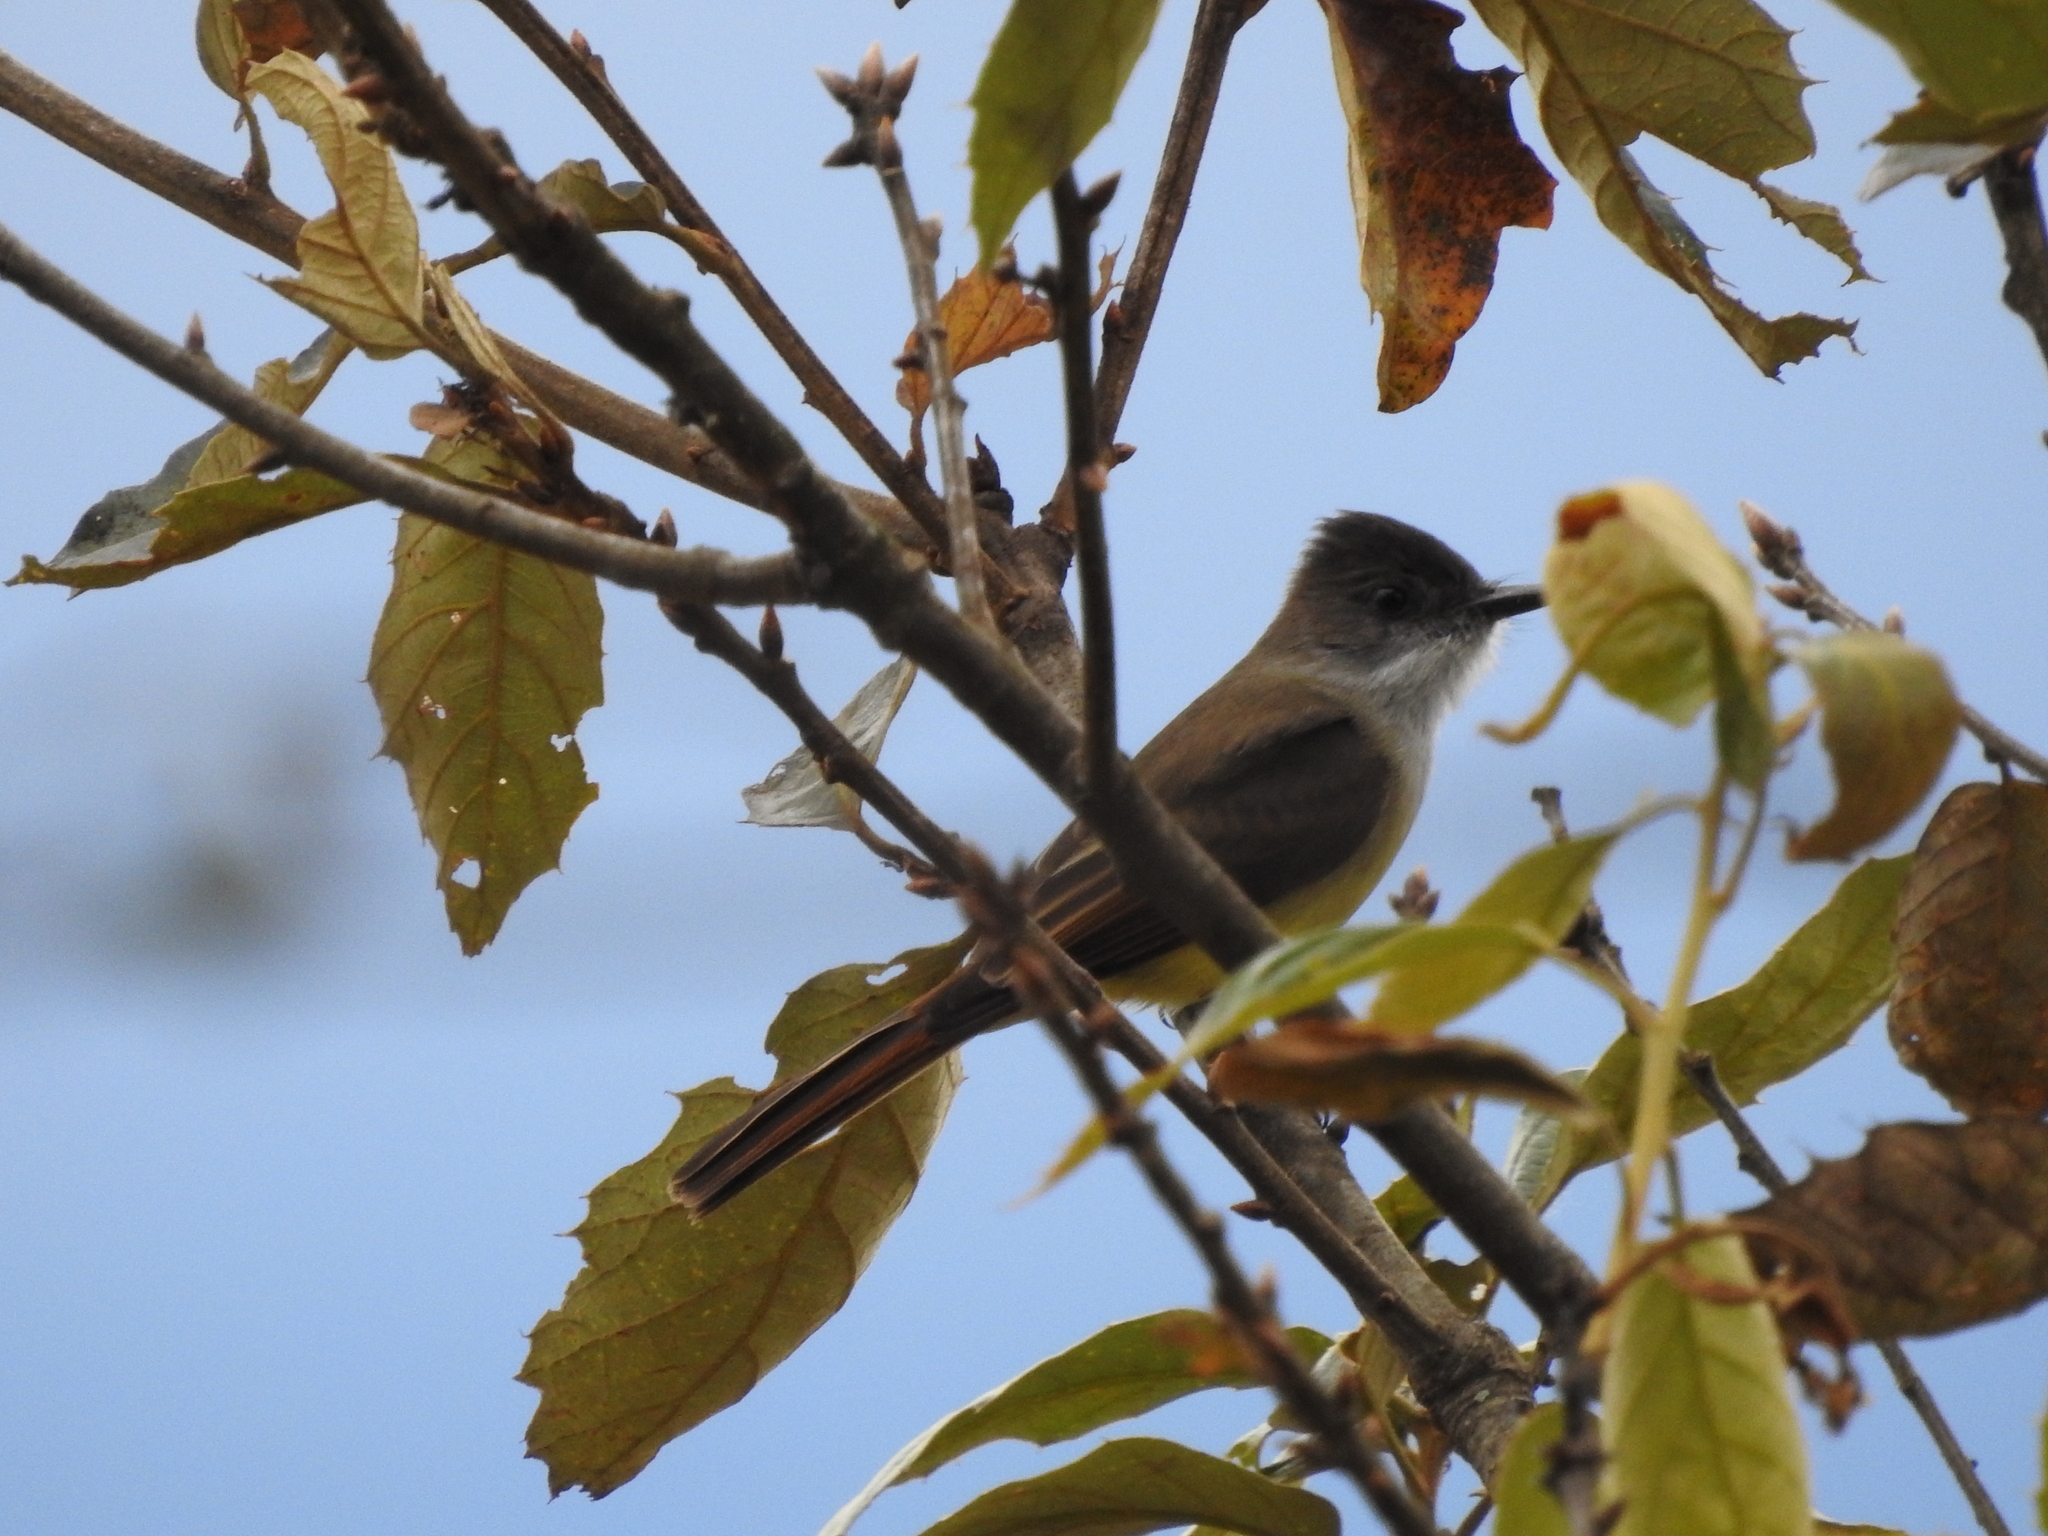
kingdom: Animalia
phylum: Chordata
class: Aves
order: Passeriformes
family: Tyrannidae
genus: Myiarchus
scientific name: Myiarchus tuberculifer
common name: Dusky-capped flycatcher
